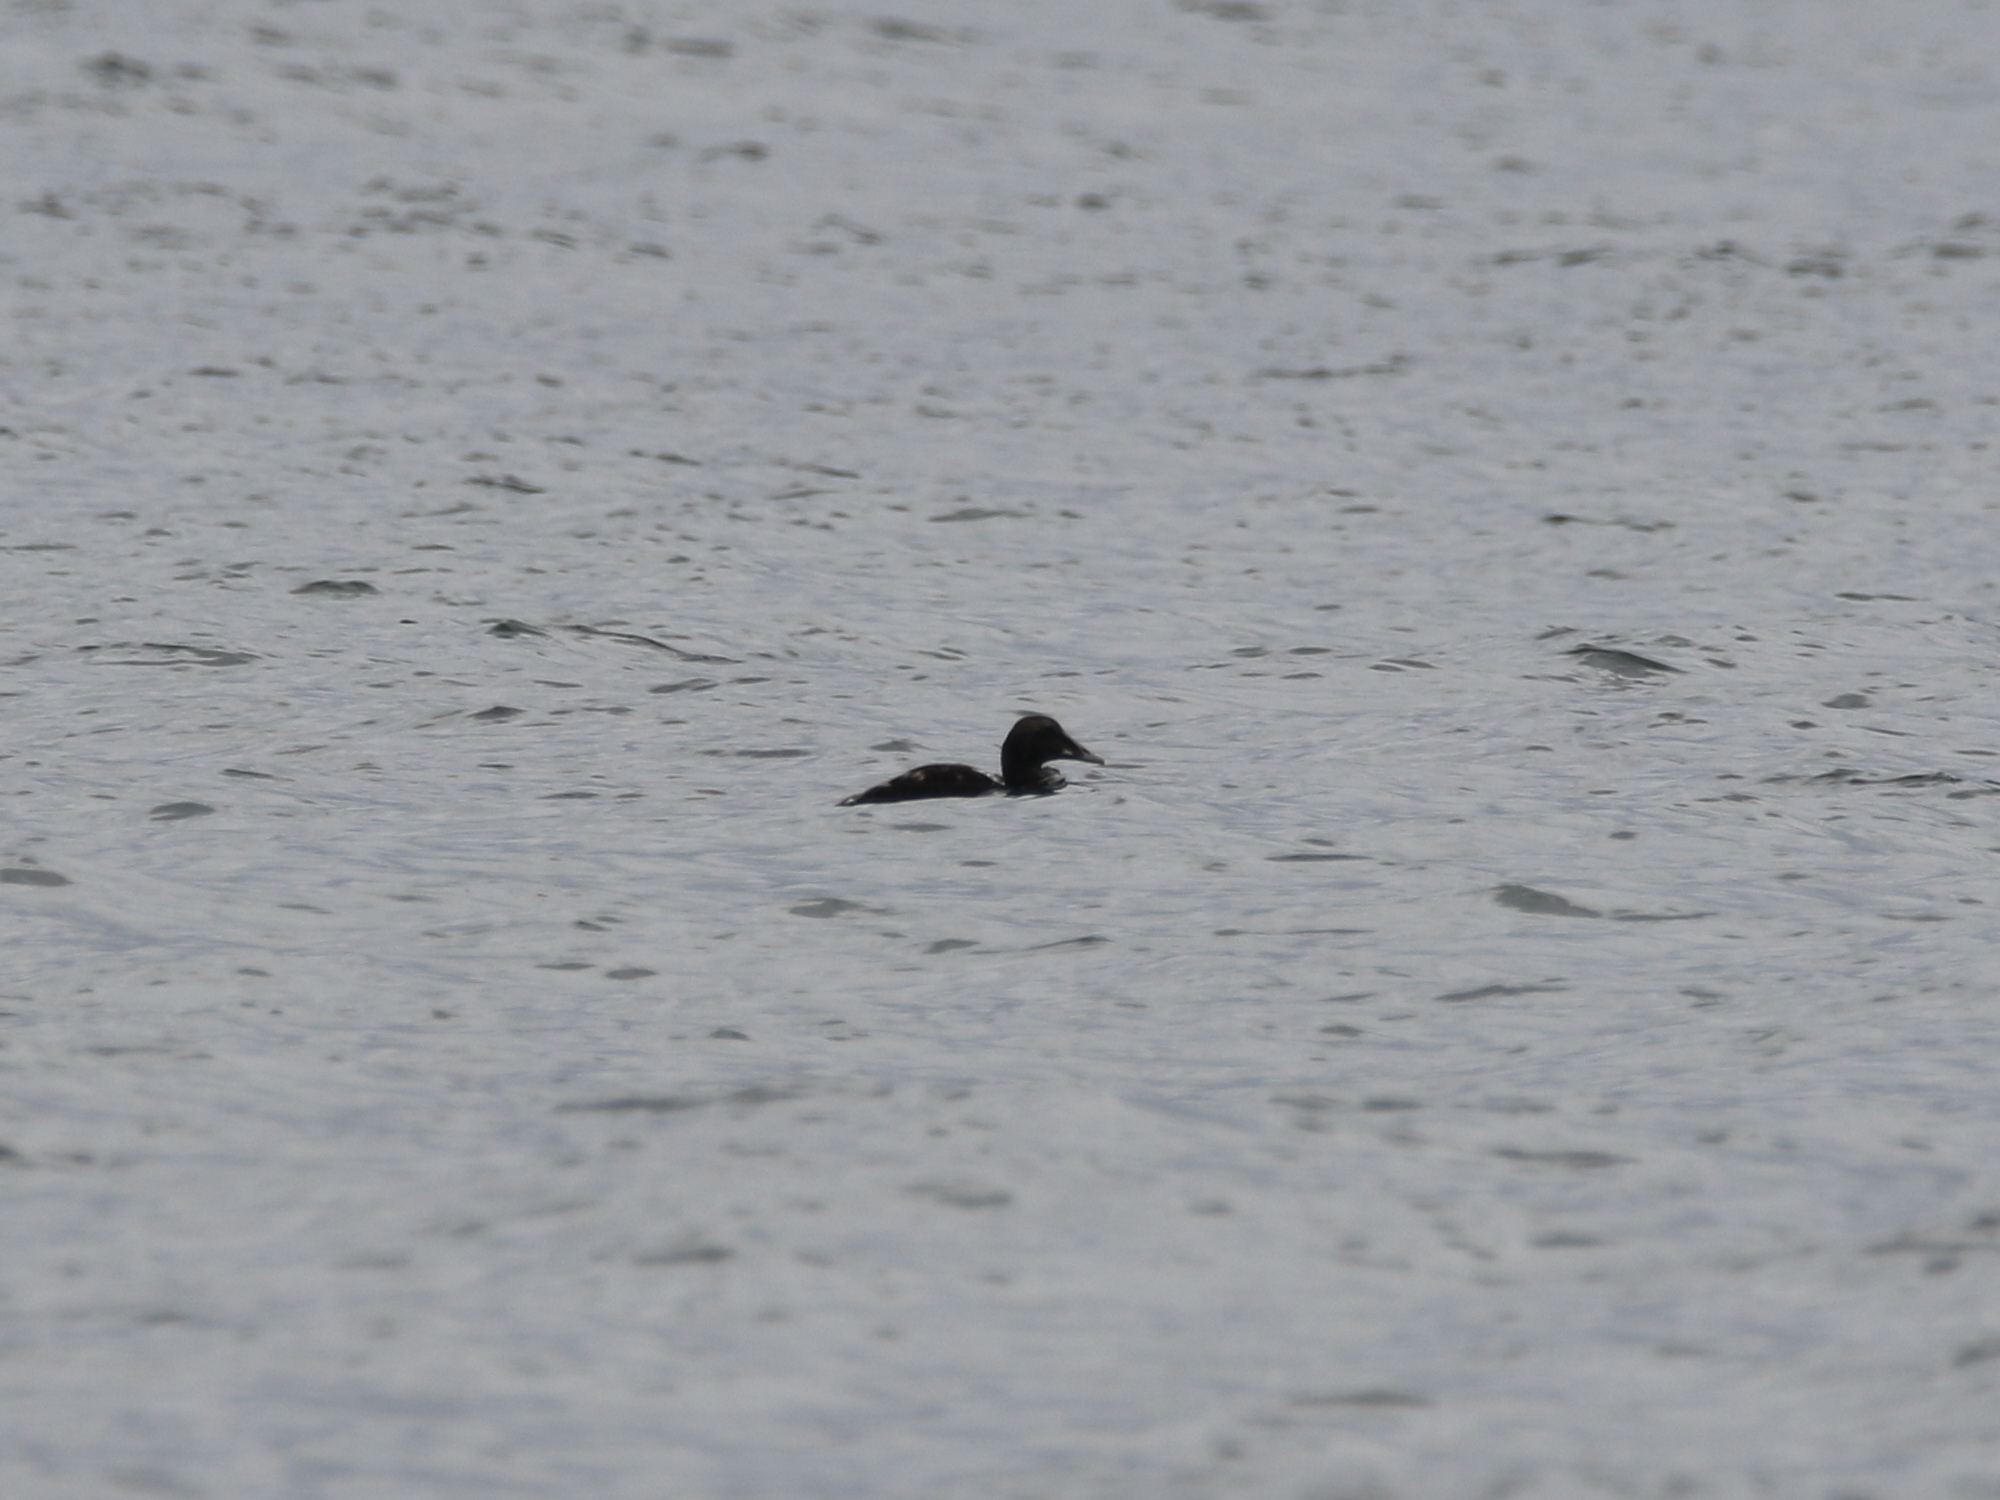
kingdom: Animalia
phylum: Chordata
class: Aves
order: Anseriformes
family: Anatidae
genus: Somateria
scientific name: Somateria mollissima
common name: Common eider
